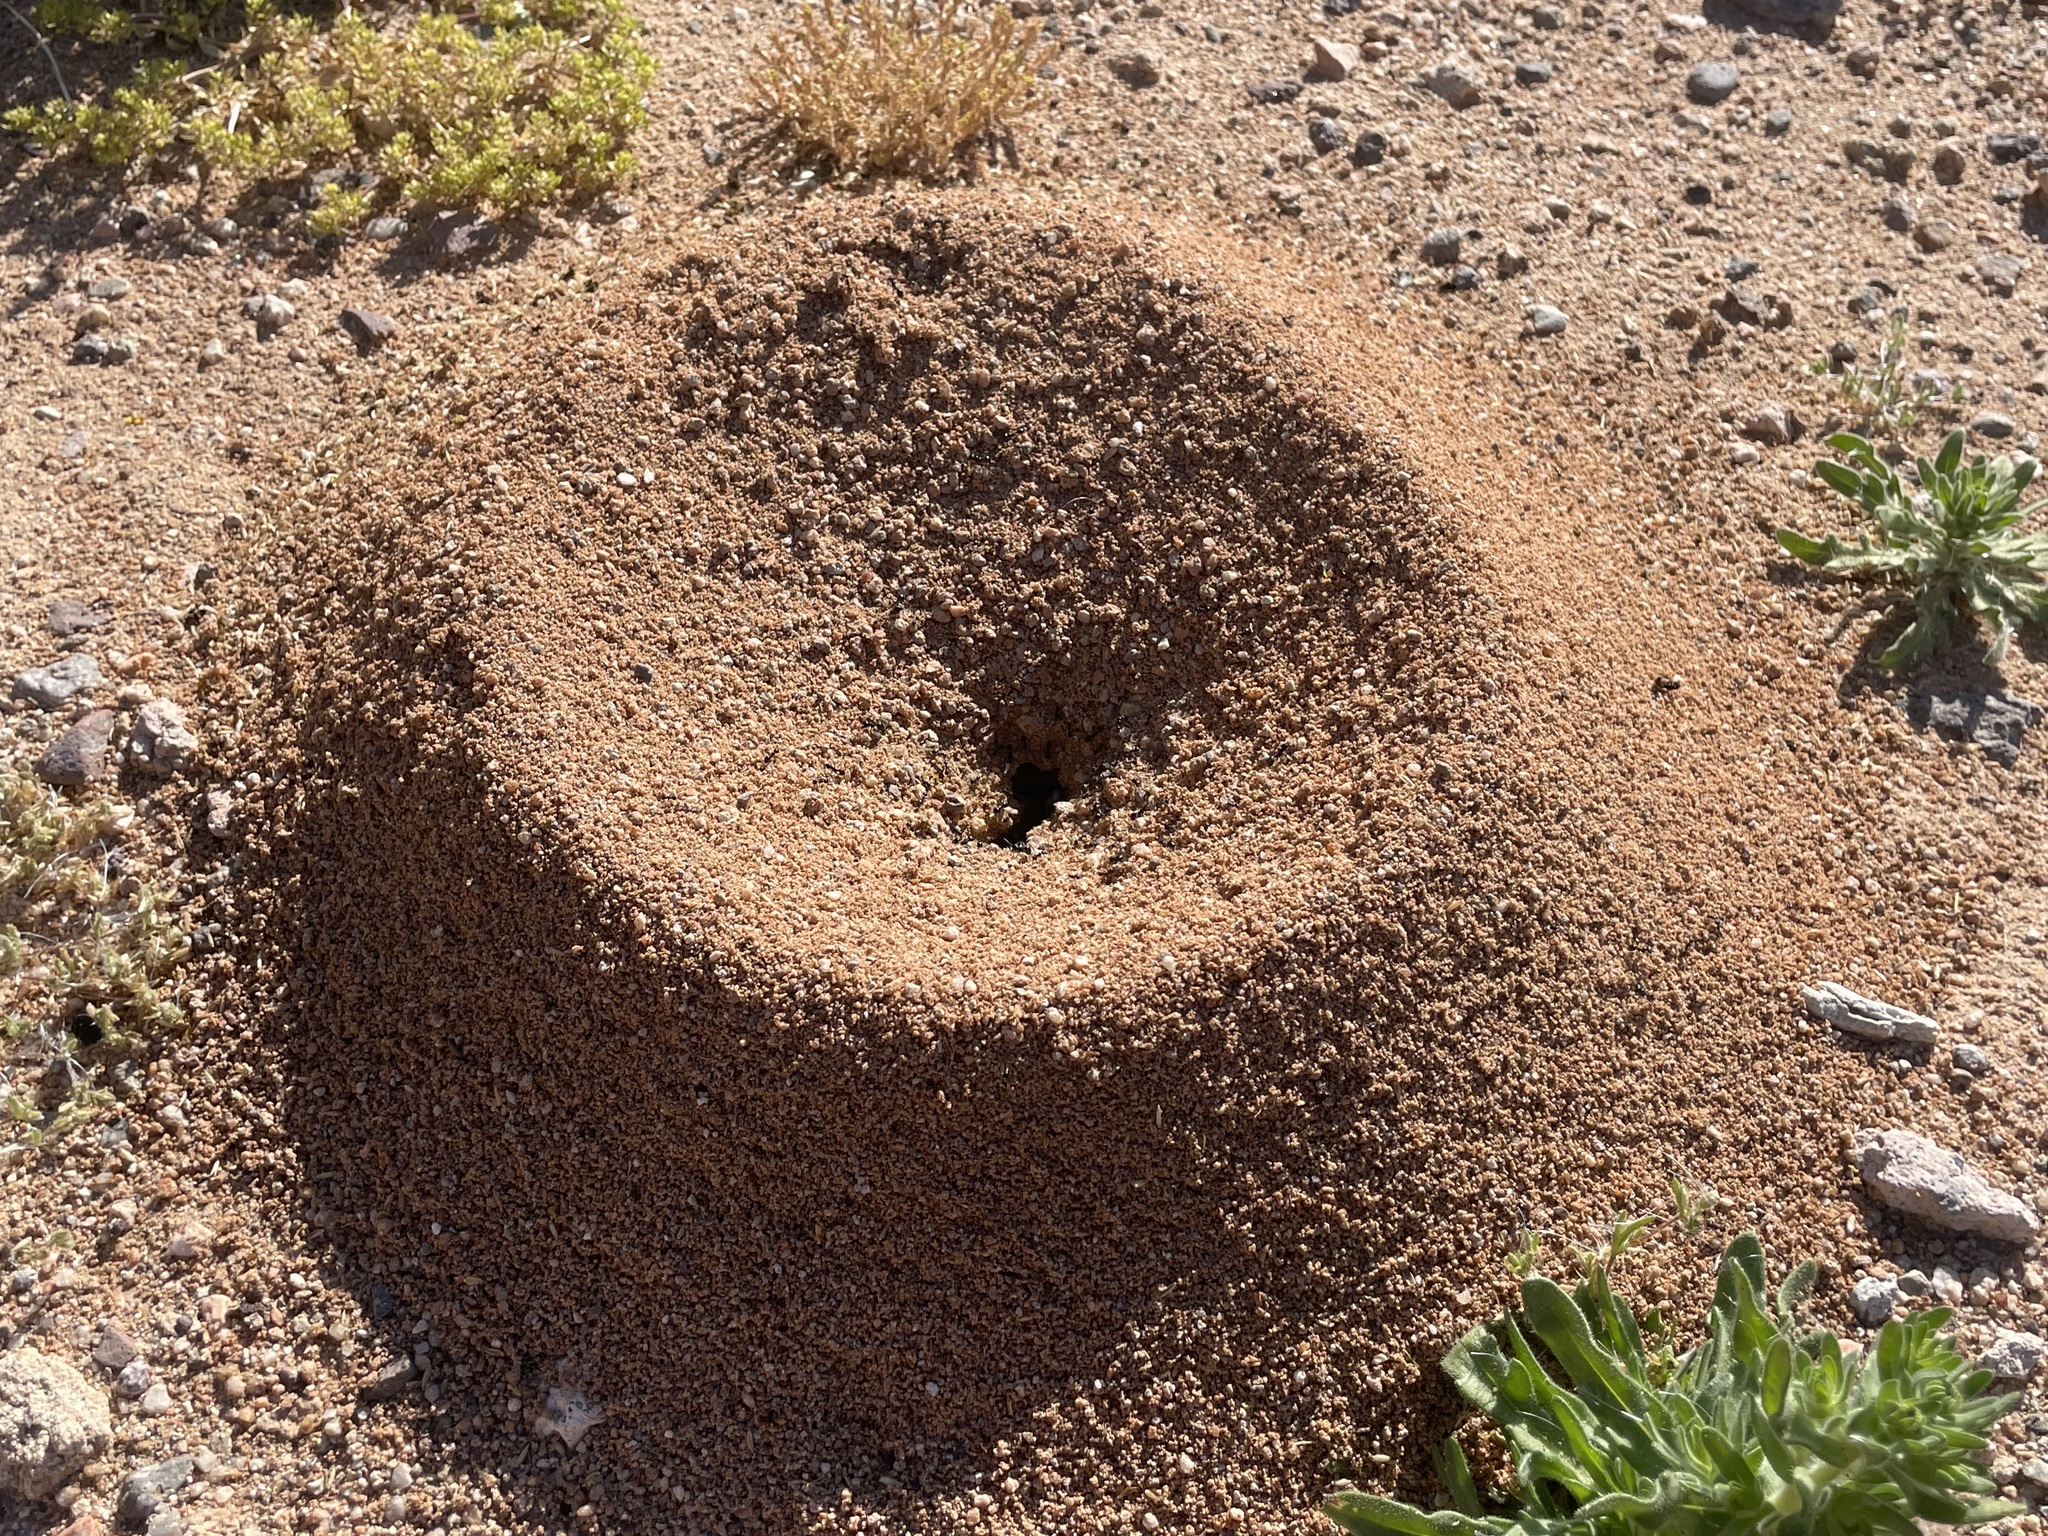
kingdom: Animalia
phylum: Arthropoda
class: Insecta
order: Hymenoptera
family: Formicidae
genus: Messor
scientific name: Messor pergandei
